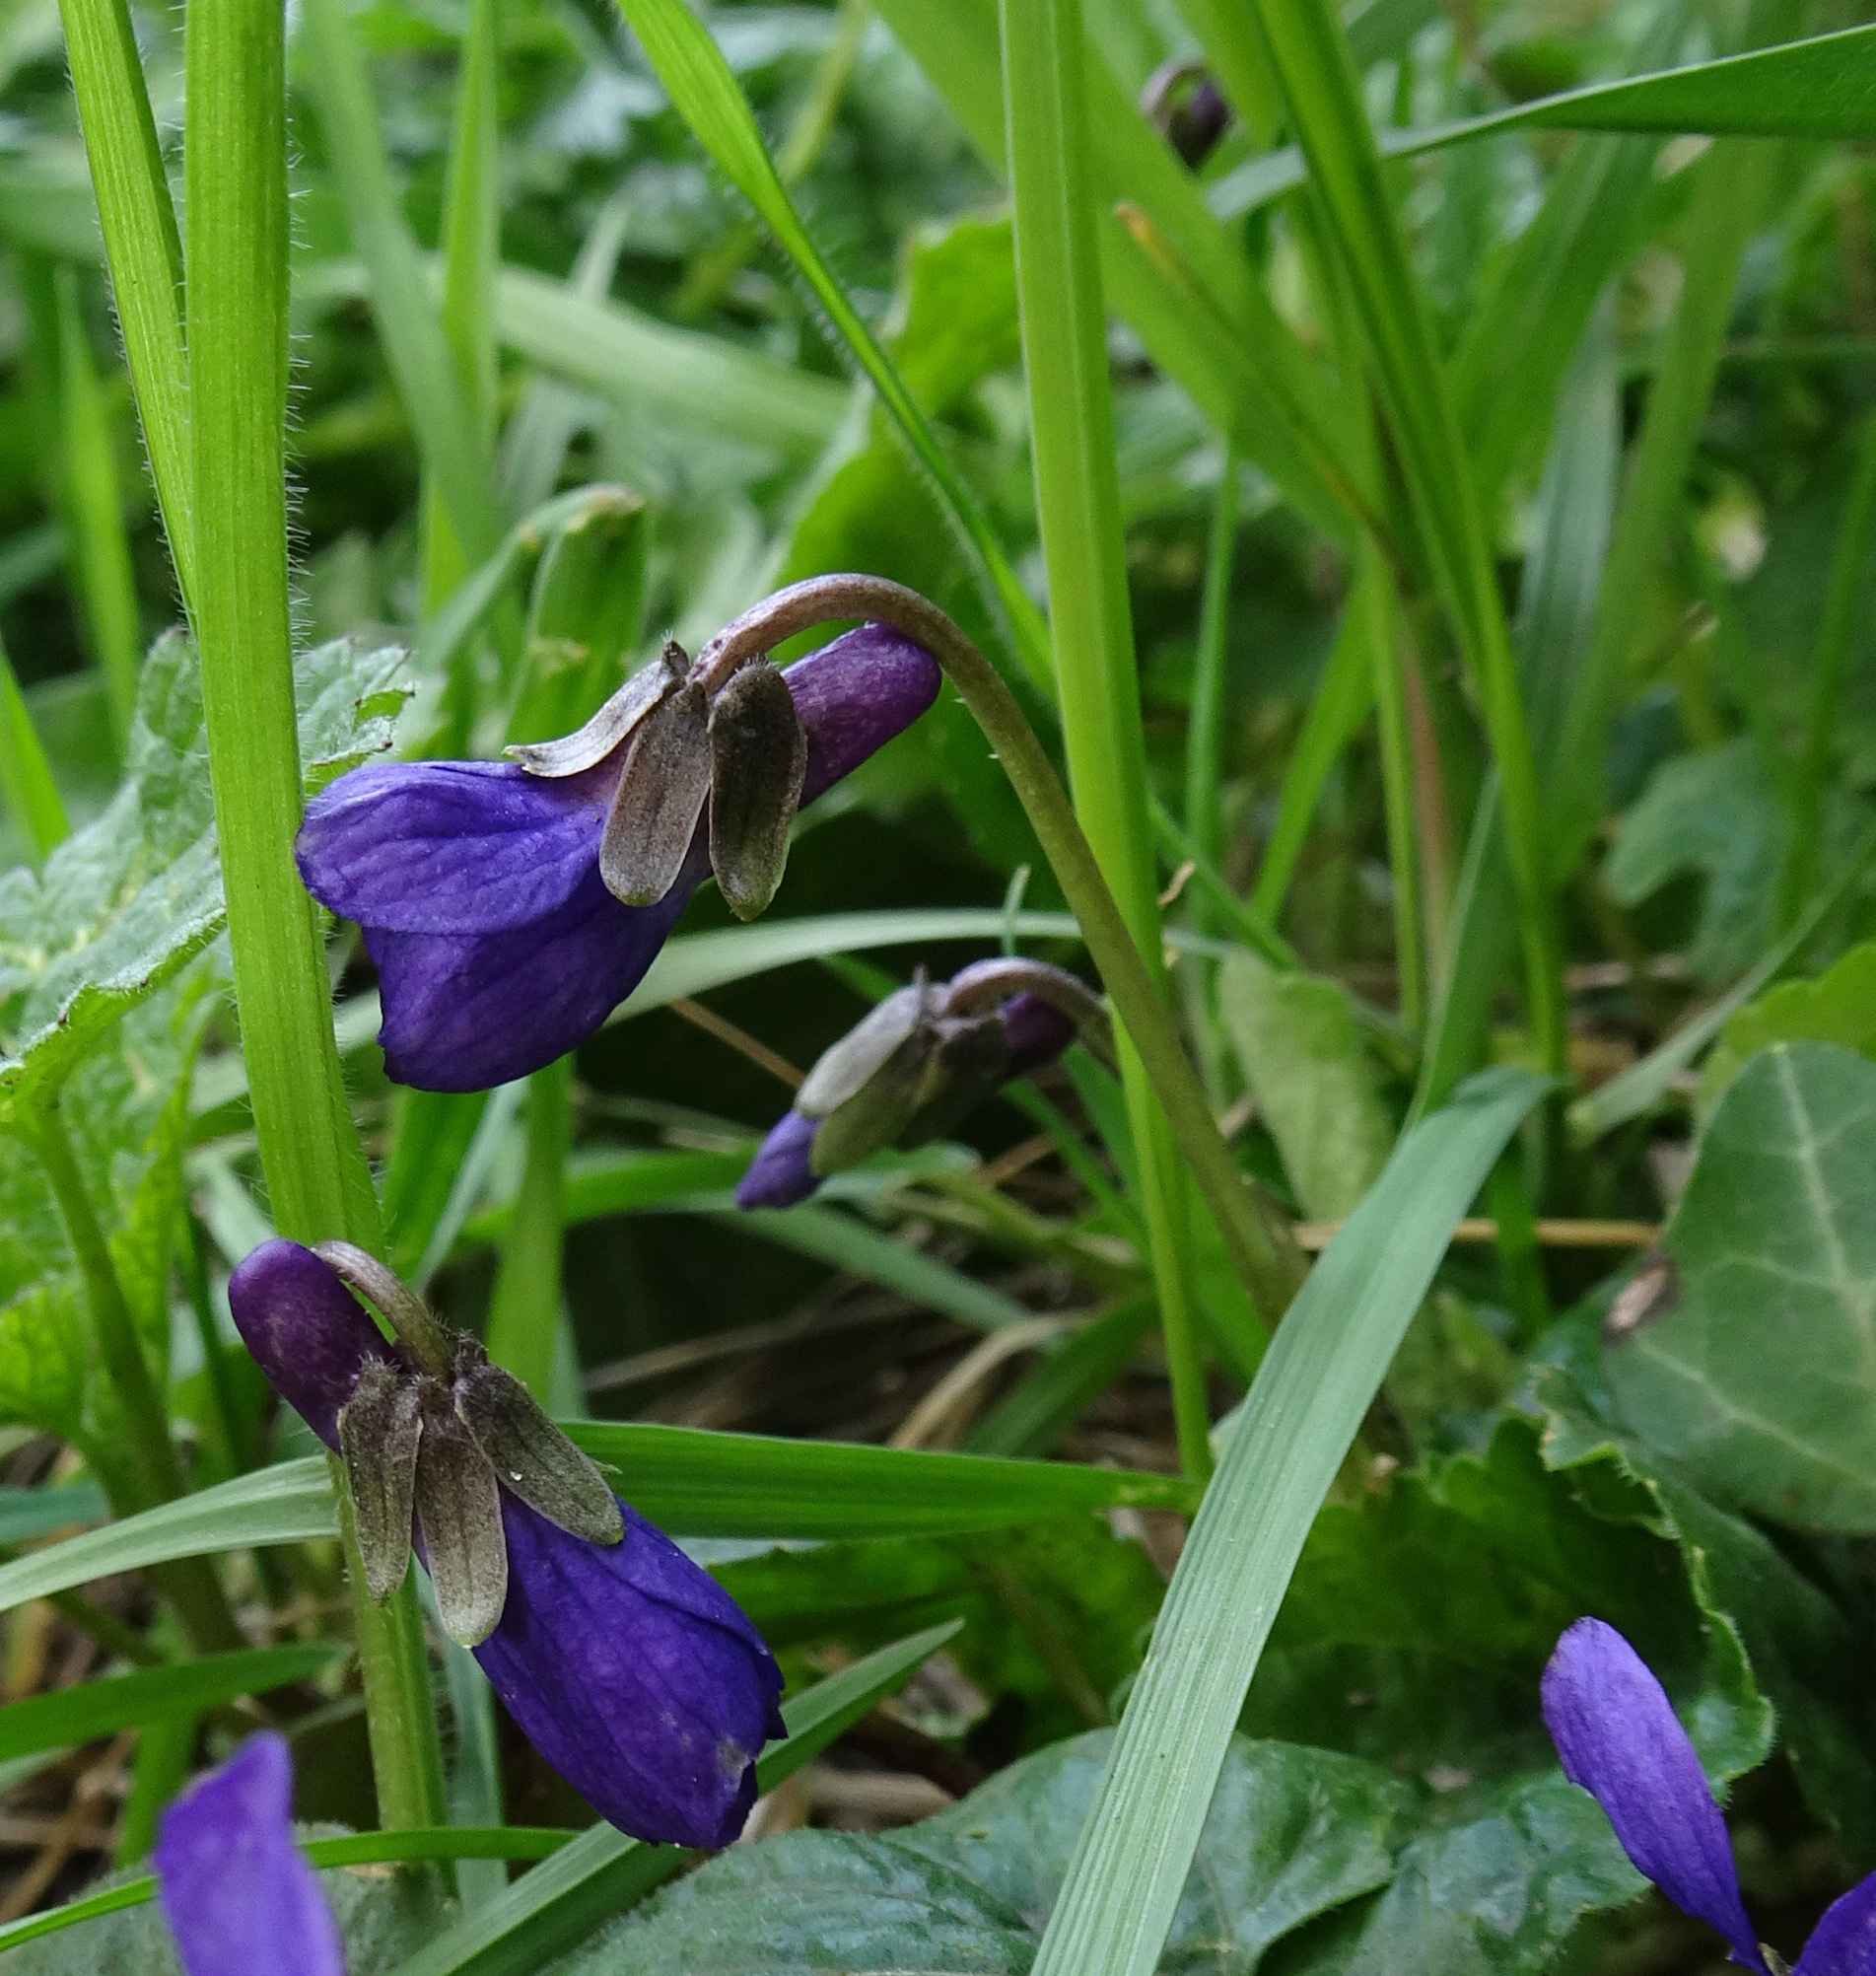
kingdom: Plantae
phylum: Tracheophyta
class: Magnoliopsida
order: Malpighiales
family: Violaceae
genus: Viola
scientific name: Viola odorata
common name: Sweet violet
